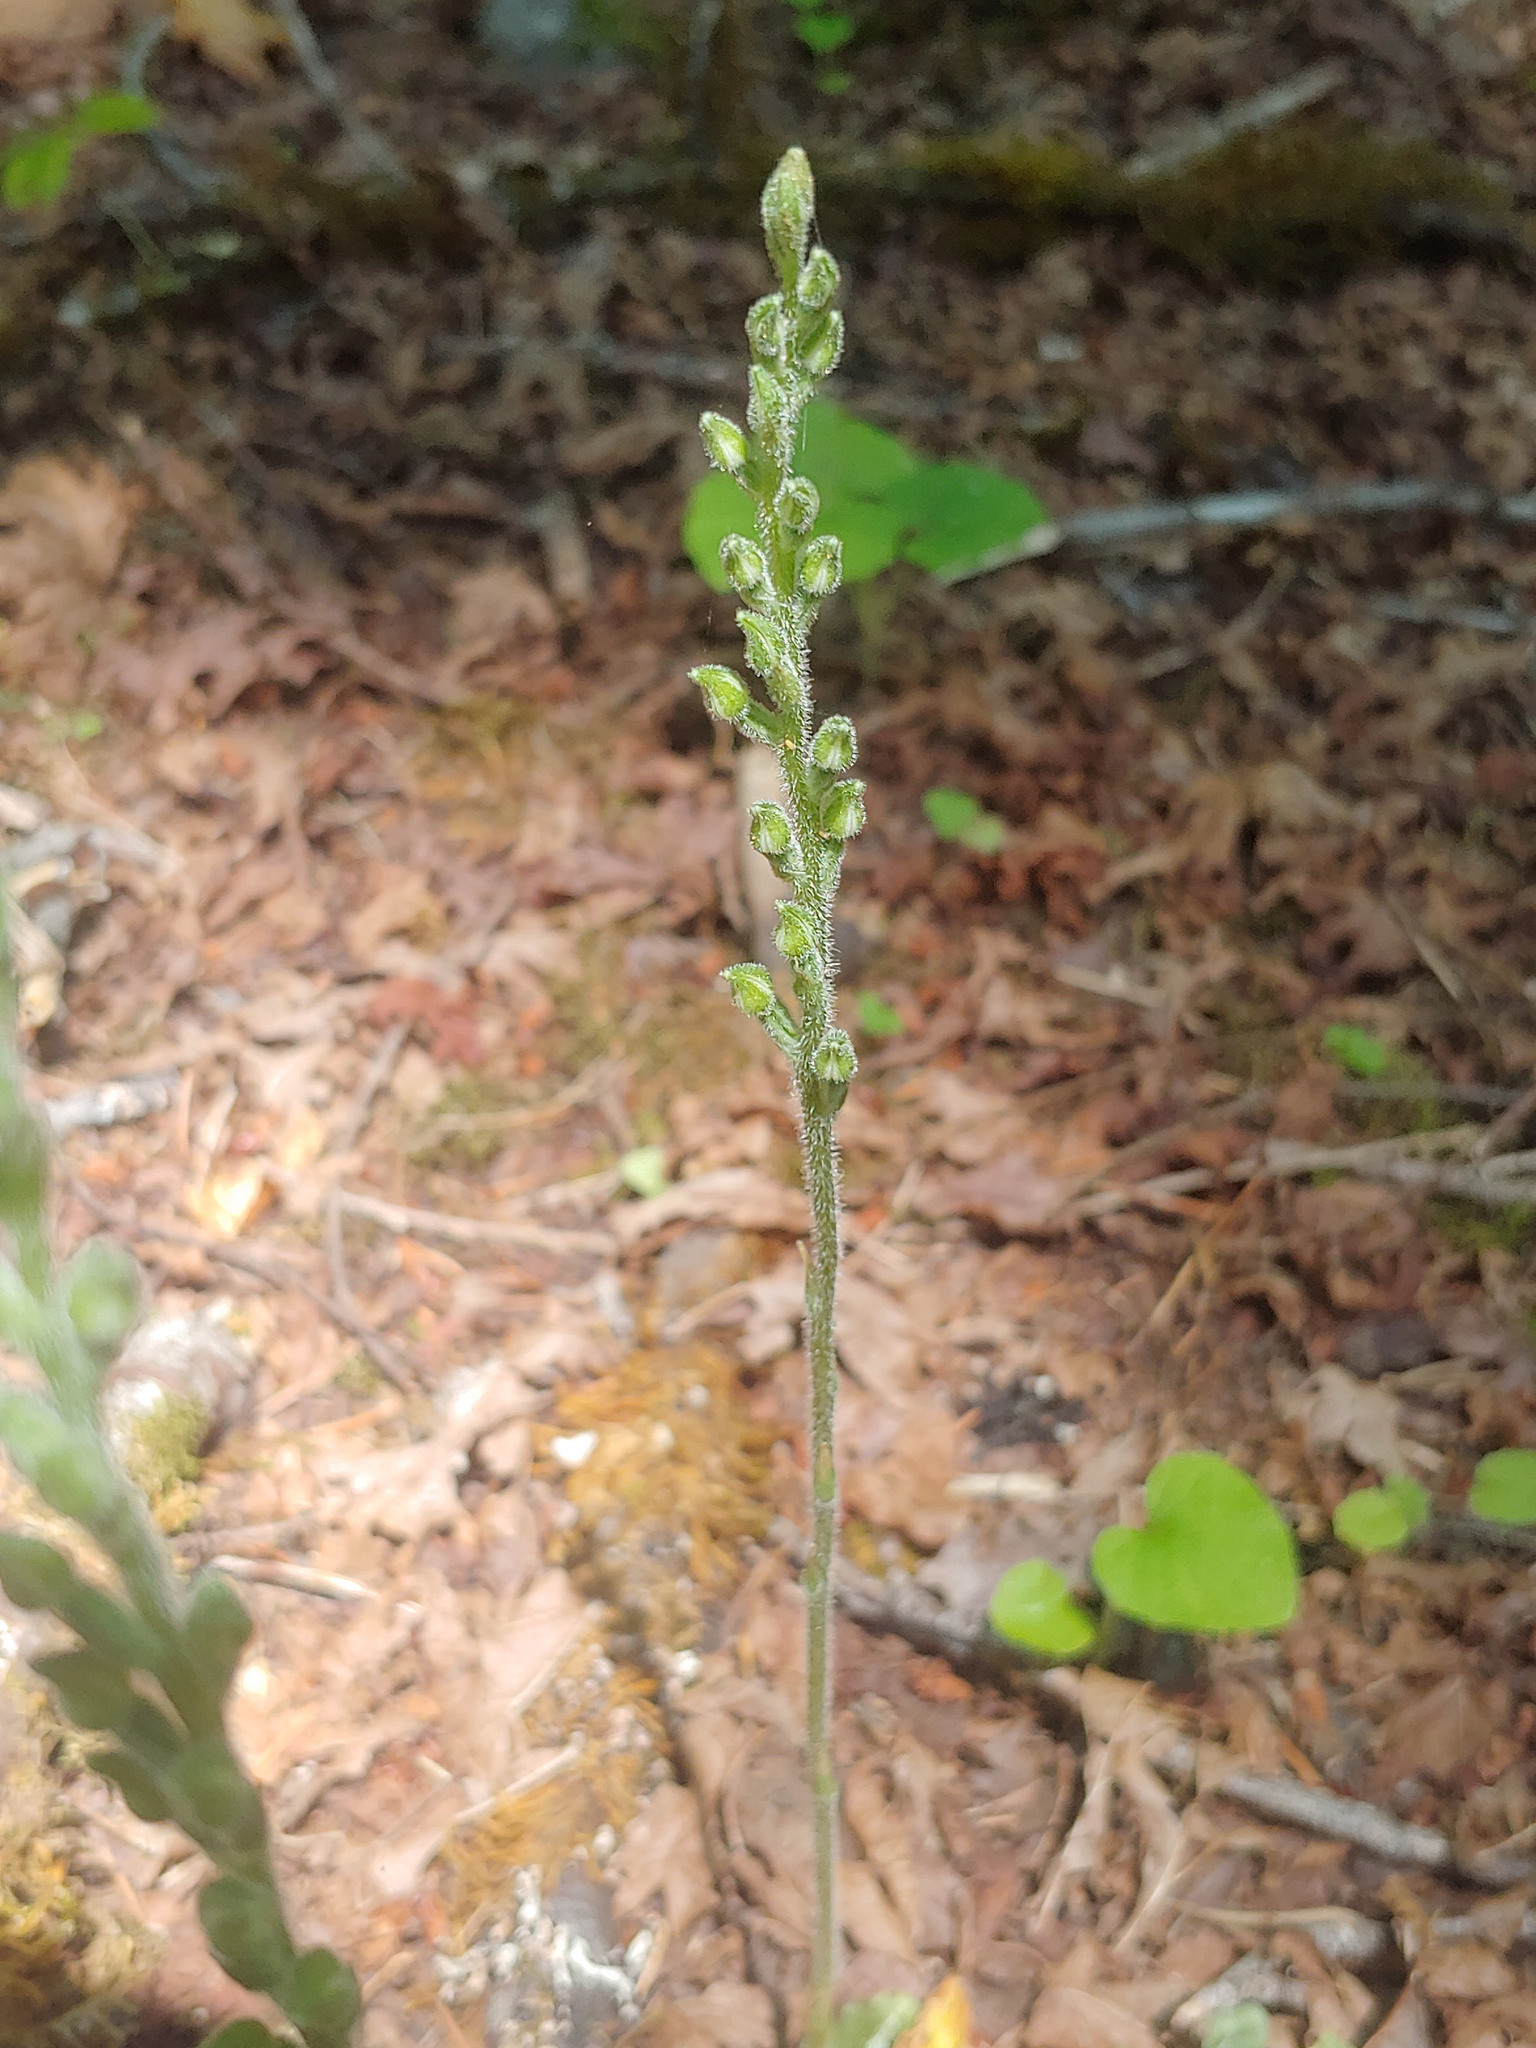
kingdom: Plantae
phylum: Tracheophyta
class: Liliopsida
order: Asparagales
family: Orchidaceae
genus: Goodyera
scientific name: Goodyera oblongifolia
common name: Giant rattlesnake-plantain
